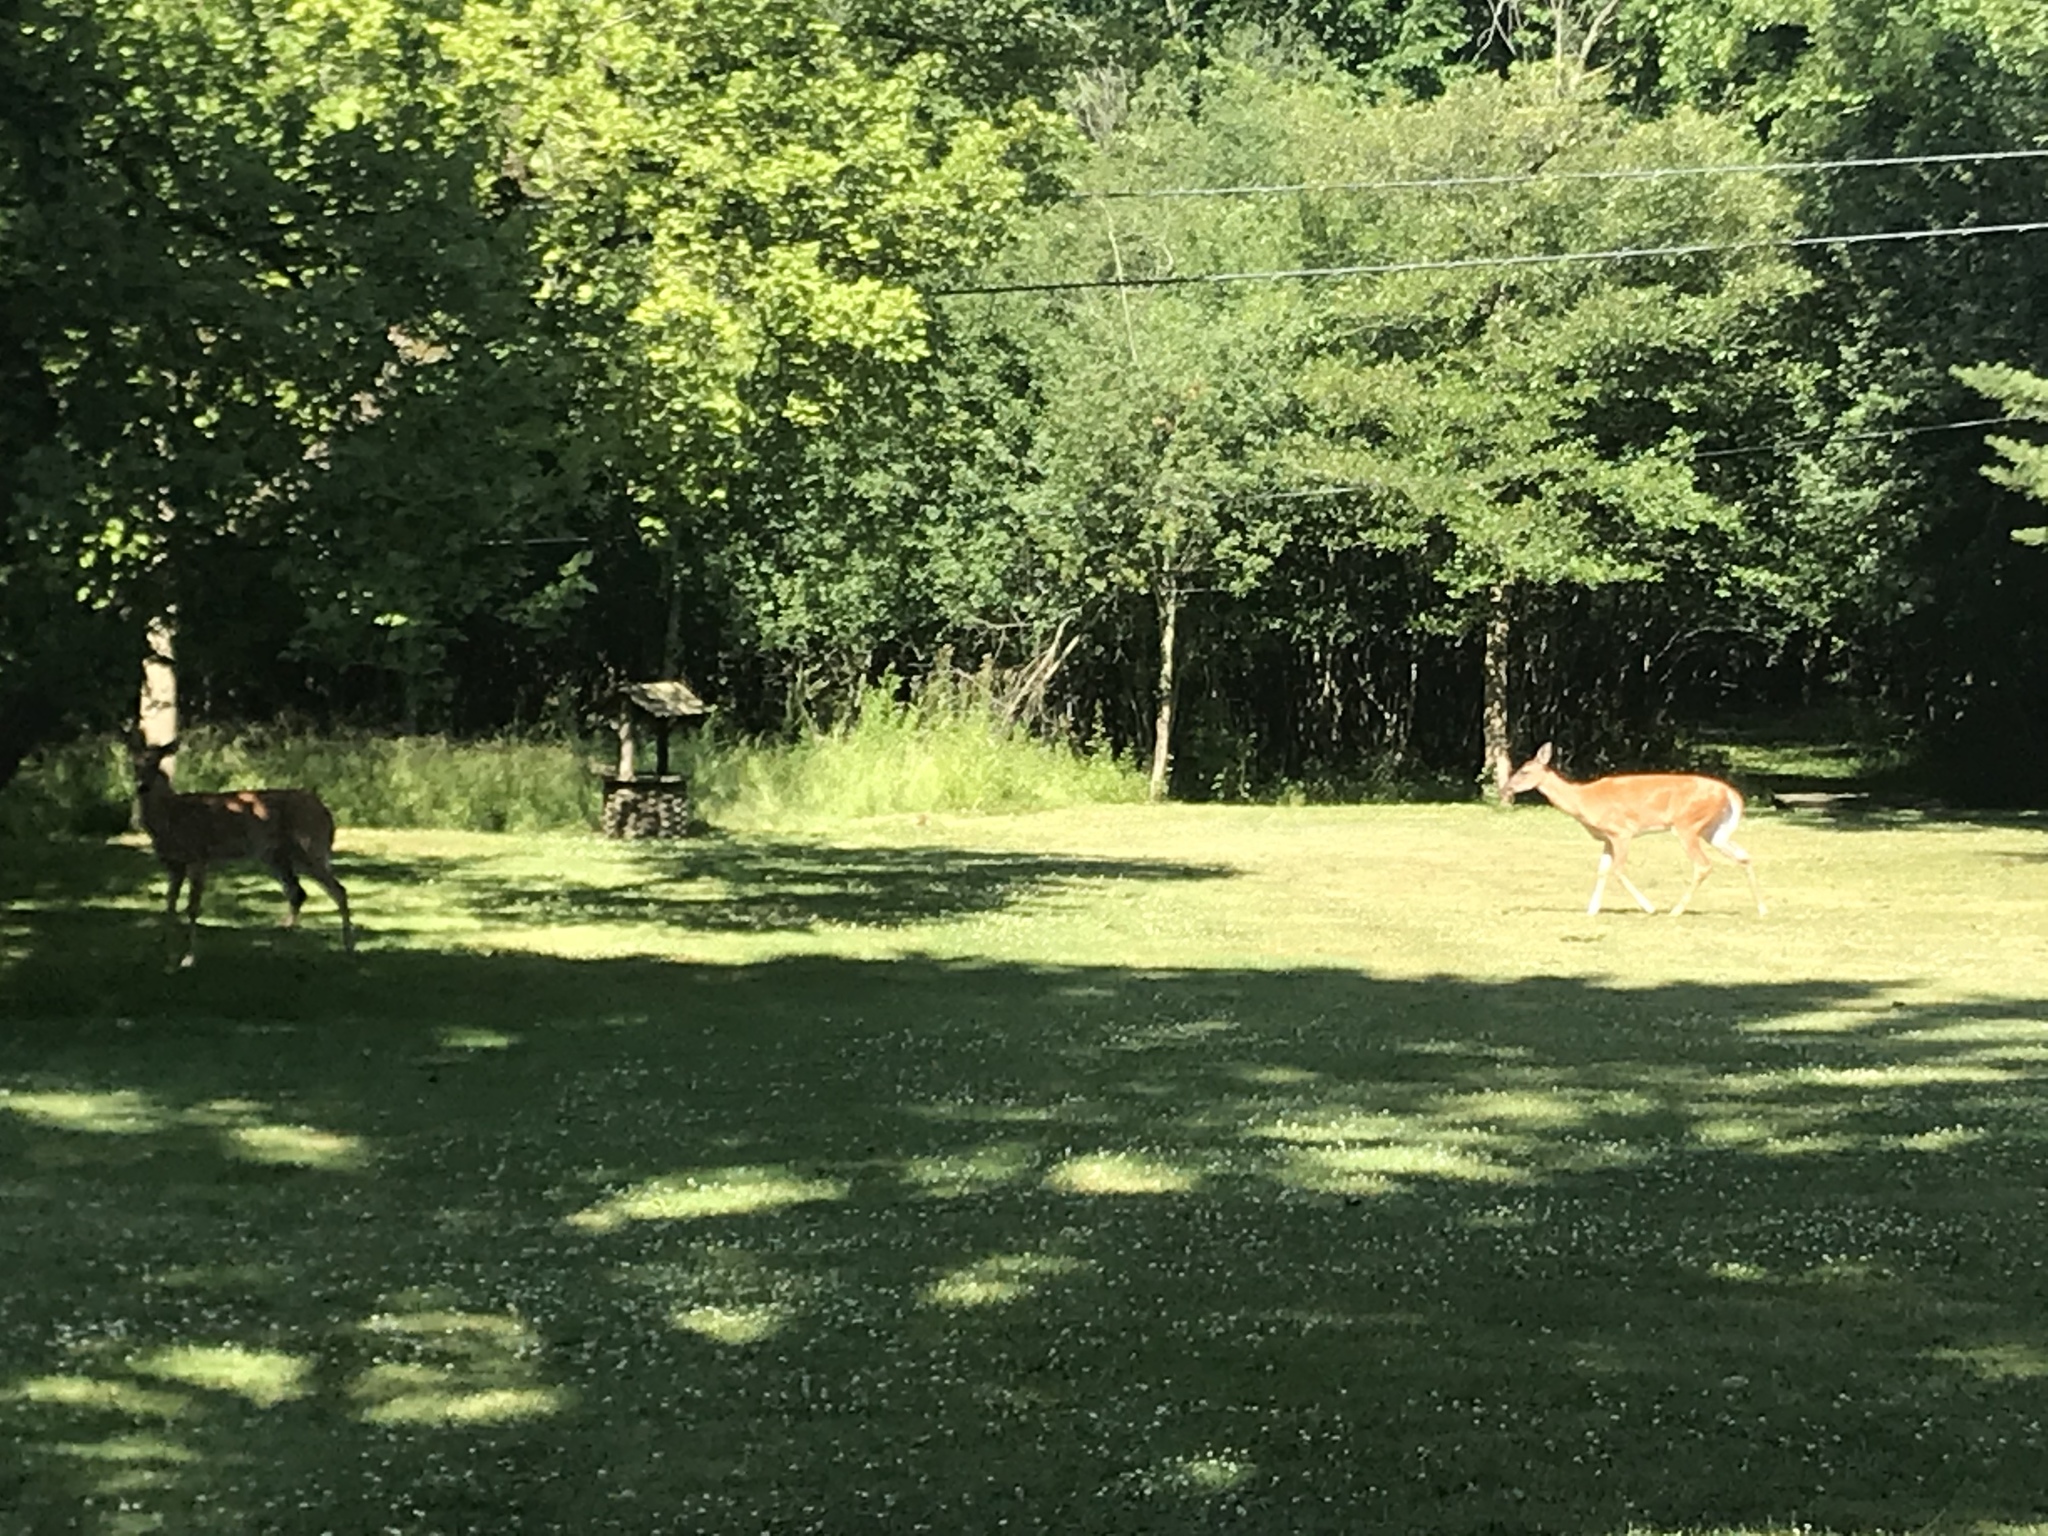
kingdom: Animalia
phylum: Chordata
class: Mammalia
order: Artiodactyla
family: Cervidae
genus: Odocoileus
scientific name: Odocoileus virginianus
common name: White-tailed deer
